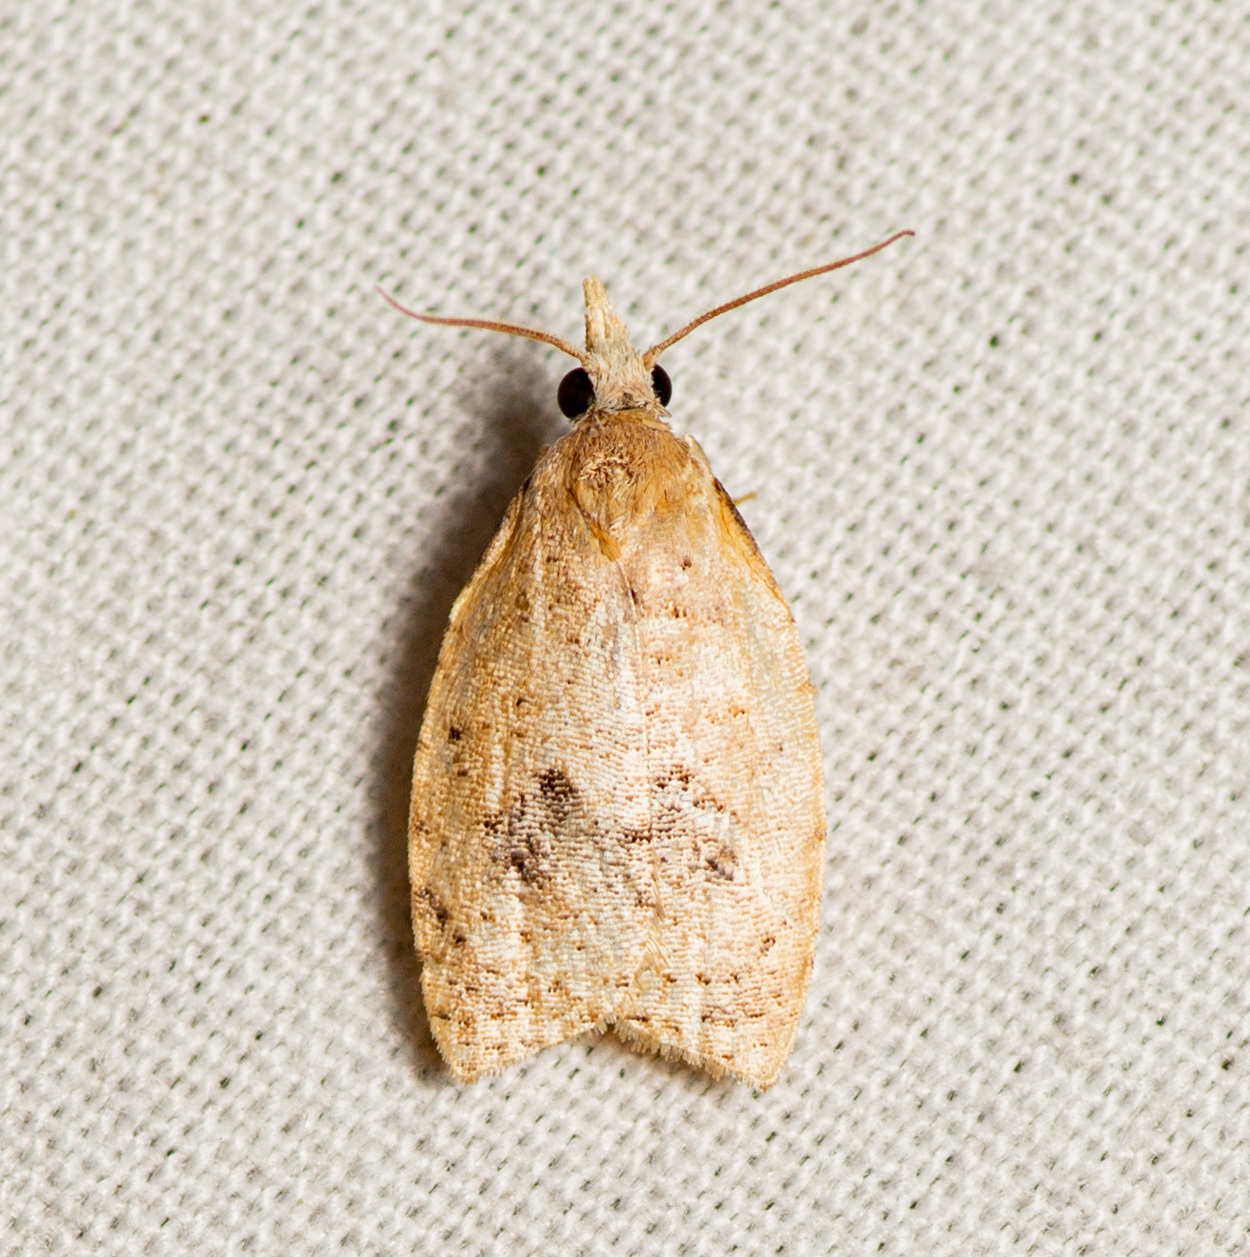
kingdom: Animalia
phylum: Arthropoda
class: Insecta
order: Lepidoptera
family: Tortricidae
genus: Sparganothoides
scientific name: Sparganothoides lentiginosana
